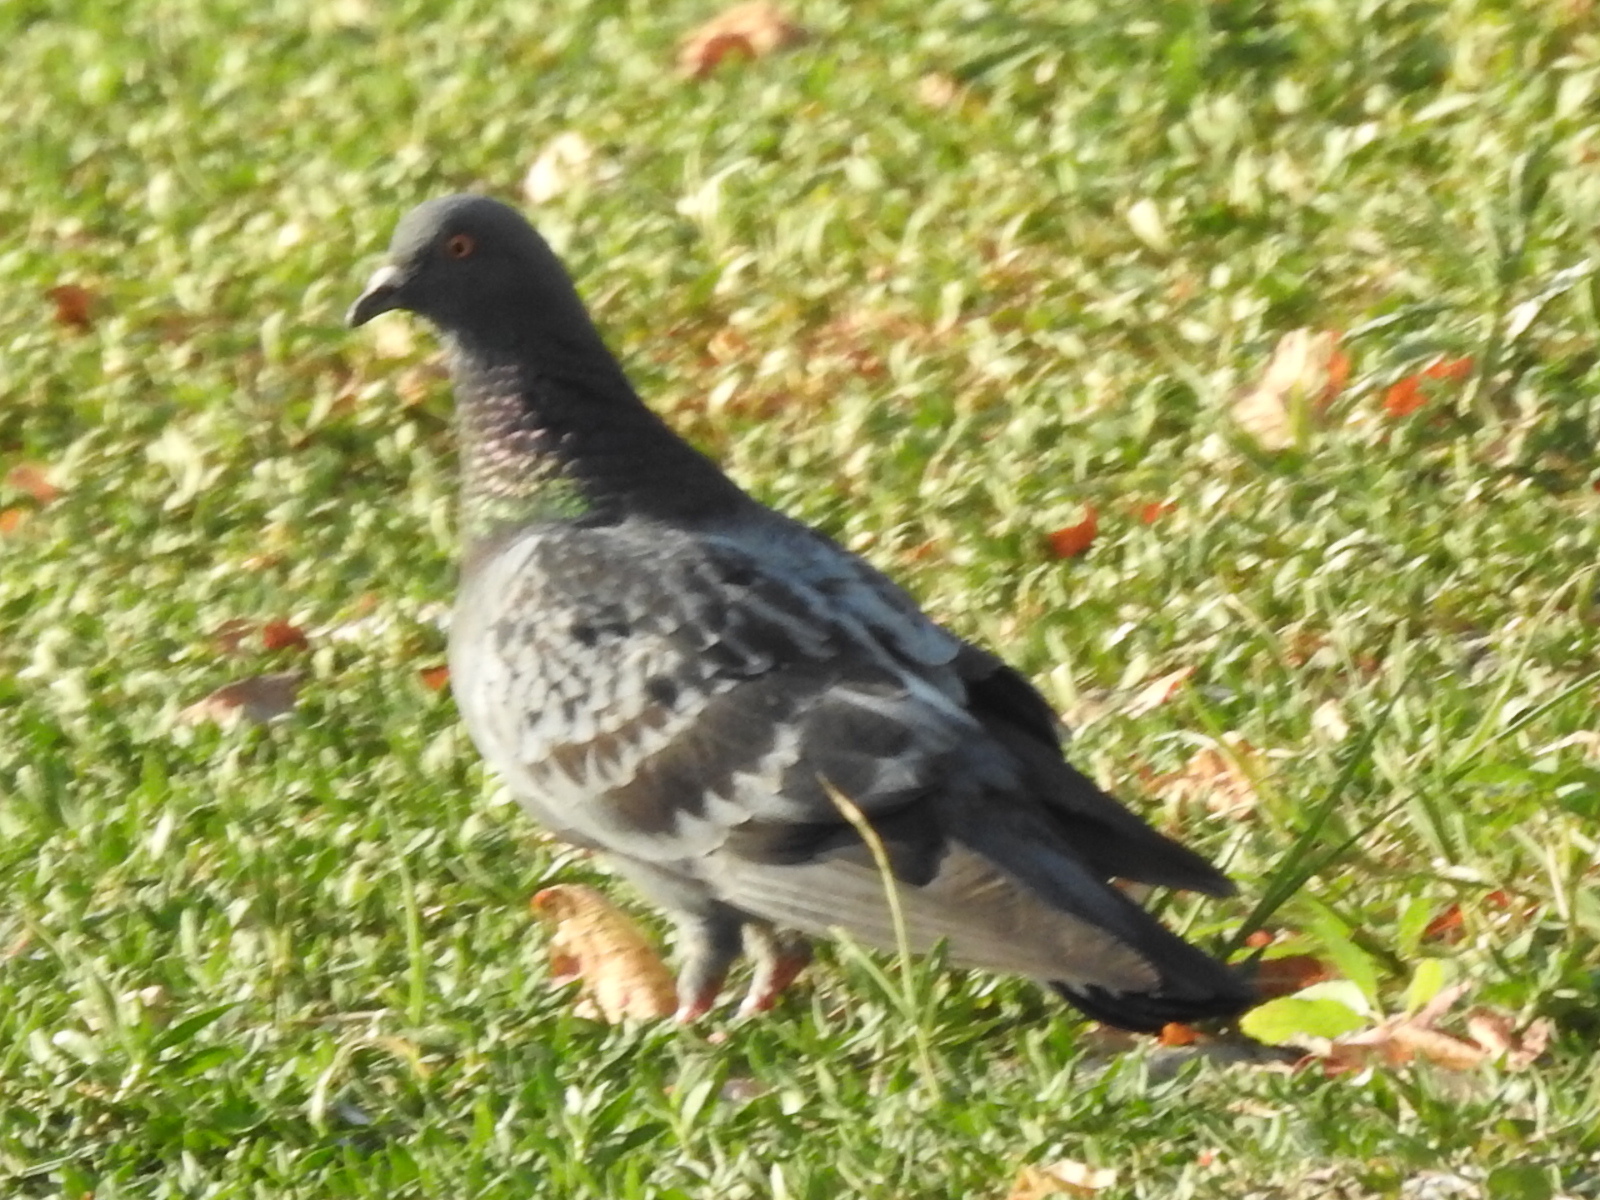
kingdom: Animalia
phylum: Chordata
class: Aves
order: Columbiformes
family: Columbidae
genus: Columba
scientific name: Columba livia
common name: Rock pigeon
